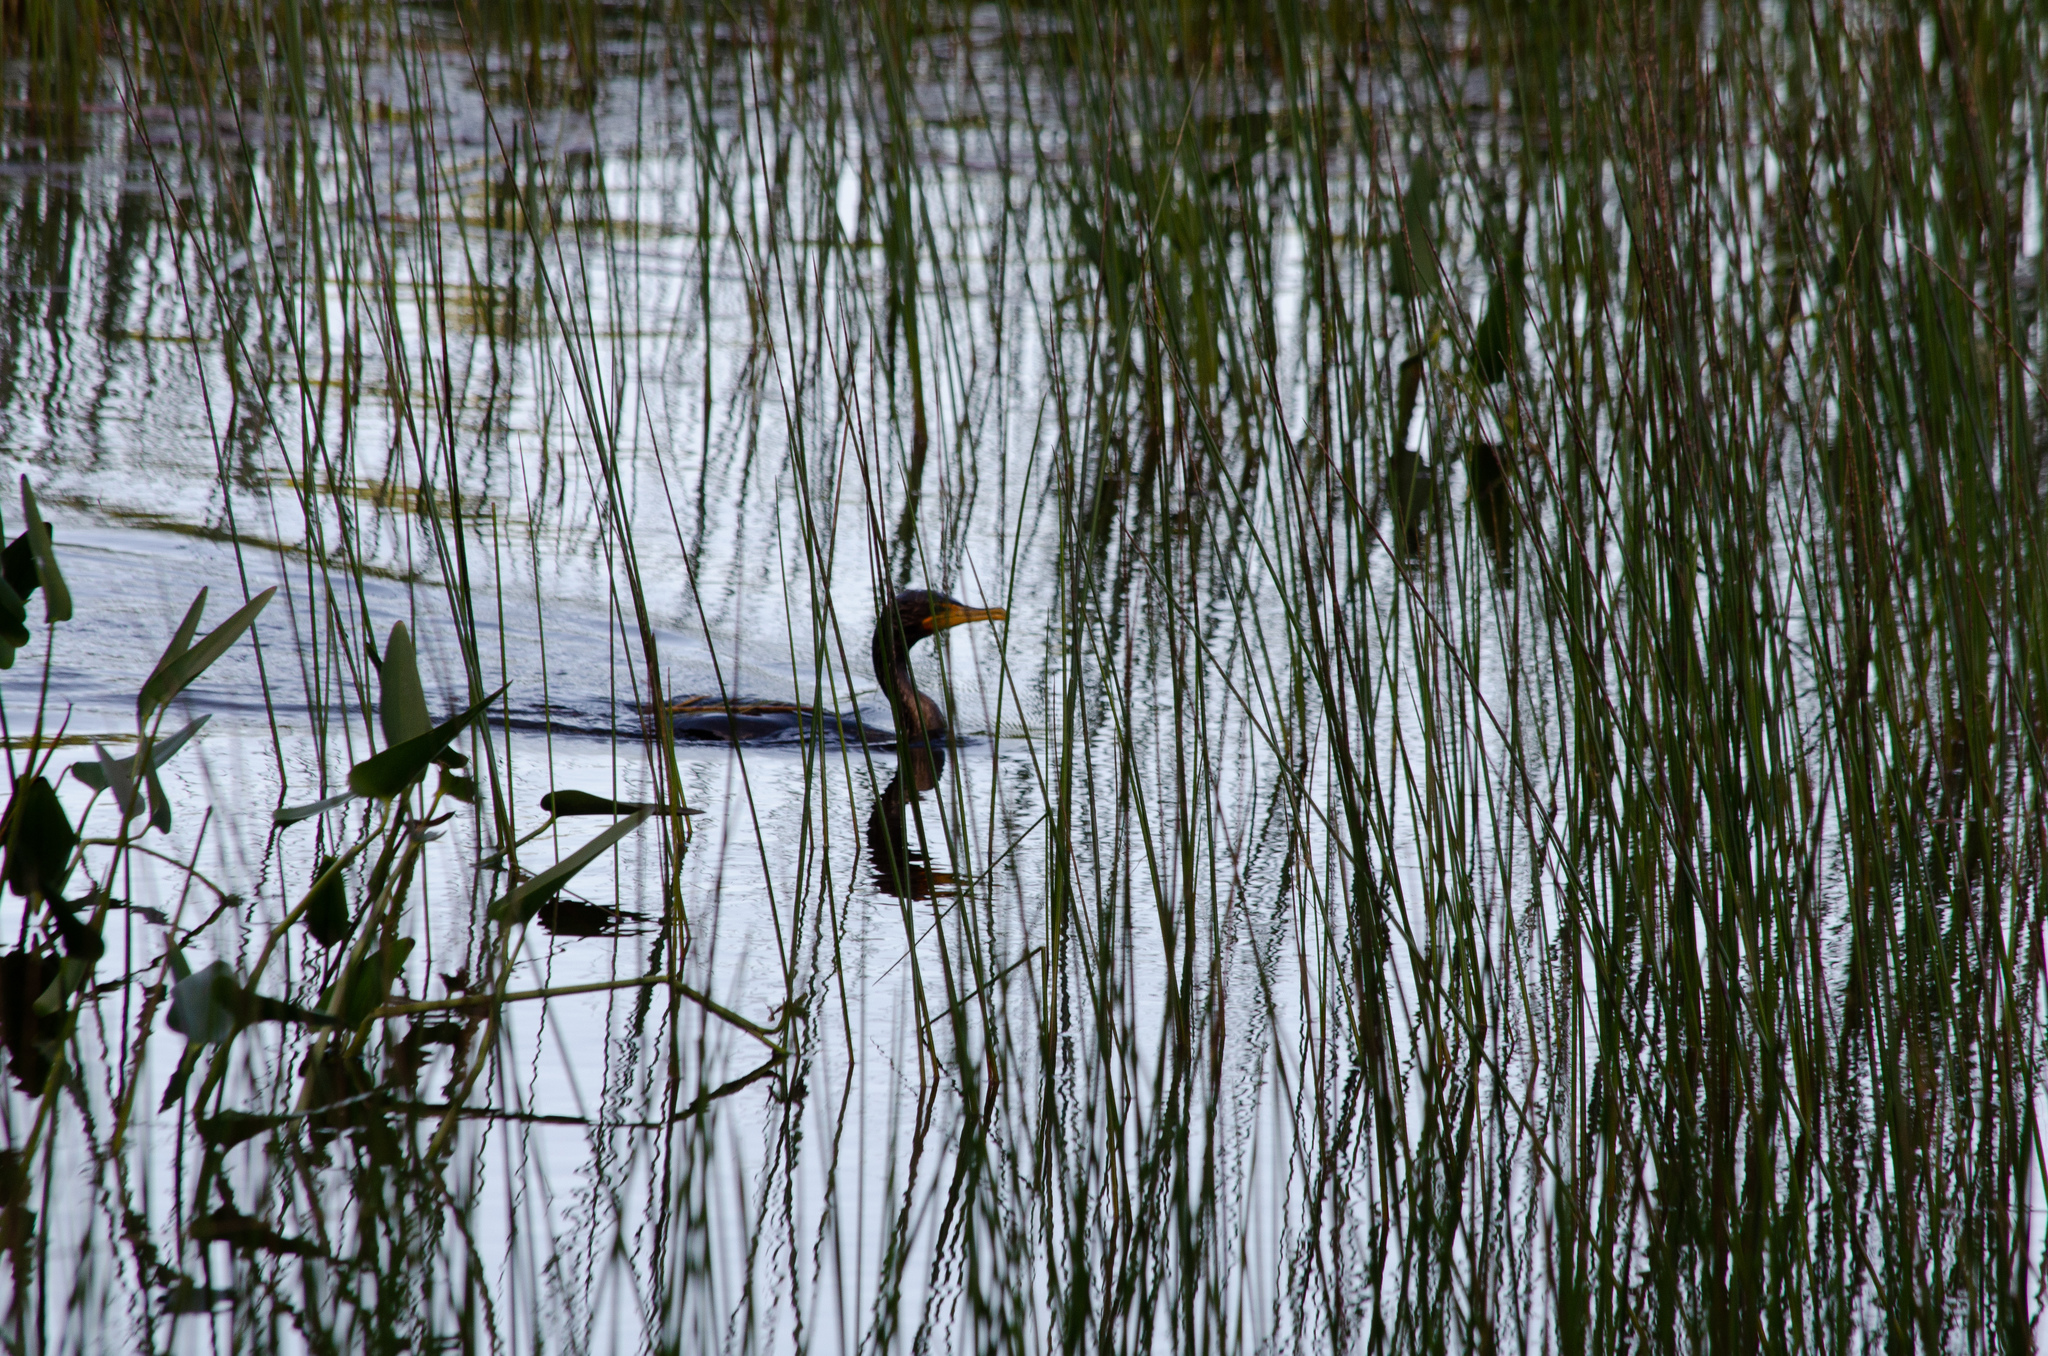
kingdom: Animalia
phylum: Chordata
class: Aves
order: Suliformes
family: Phalacrocoracidae
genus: Phalacrocorax
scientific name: Phalacrocorax auritus
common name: Double-crested cormorant
